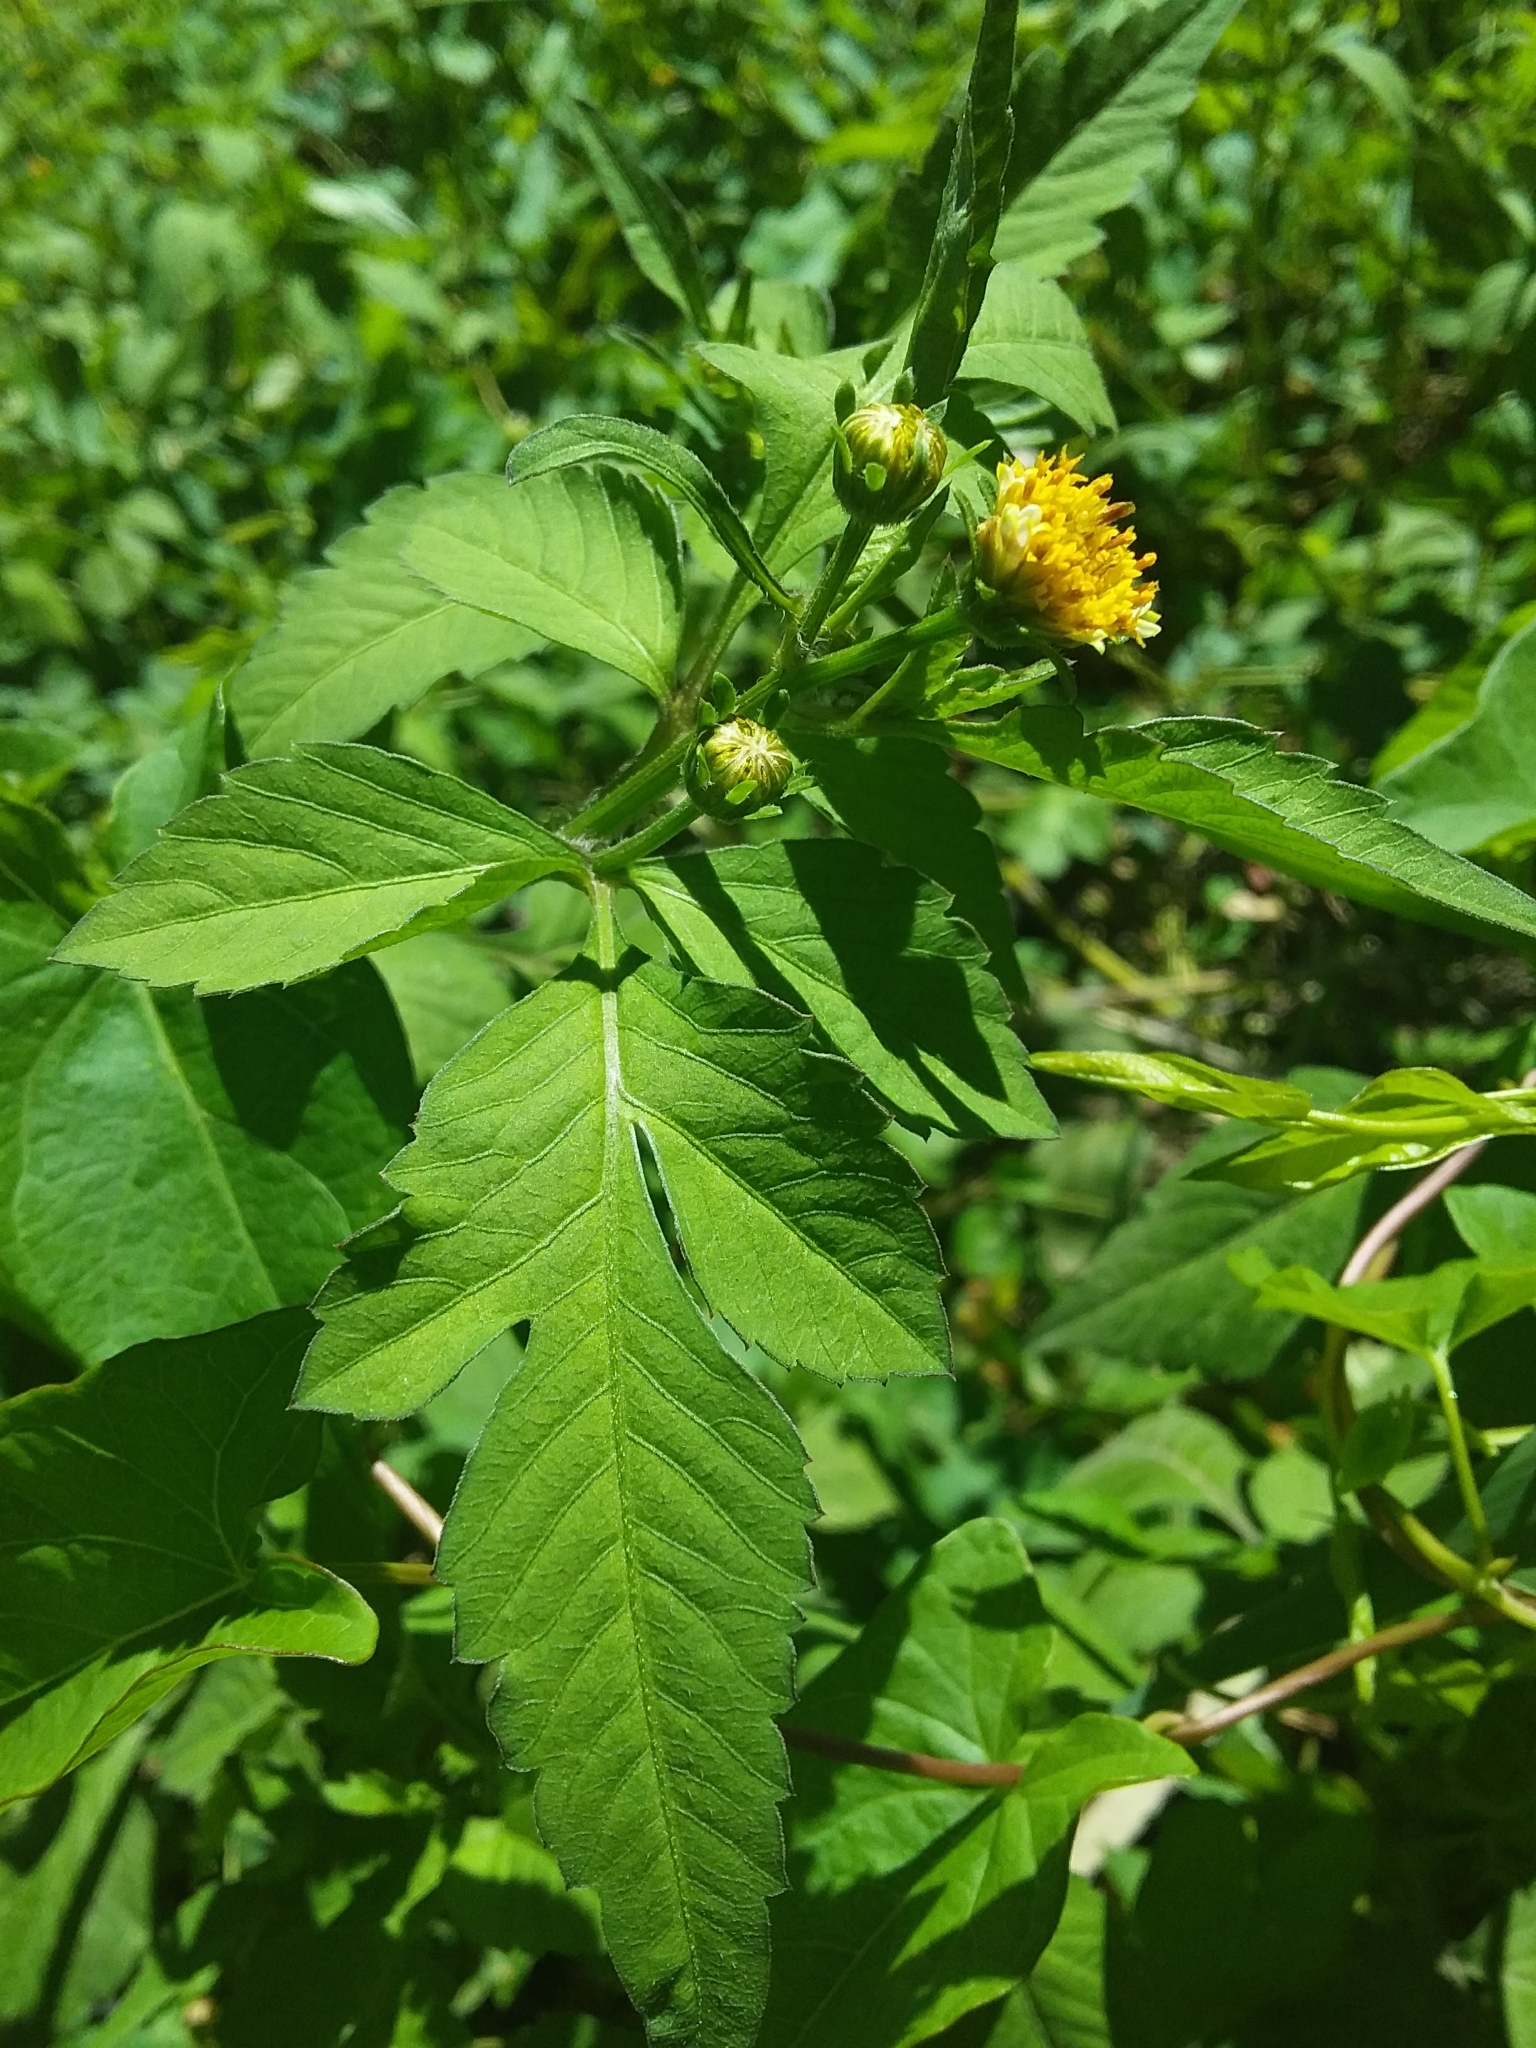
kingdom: Plantae
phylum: Tracheophyta
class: Magnoliopsida
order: Asterales
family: Asteraceae
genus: Bidens
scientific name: Bidens pilosa
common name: Black-jack
